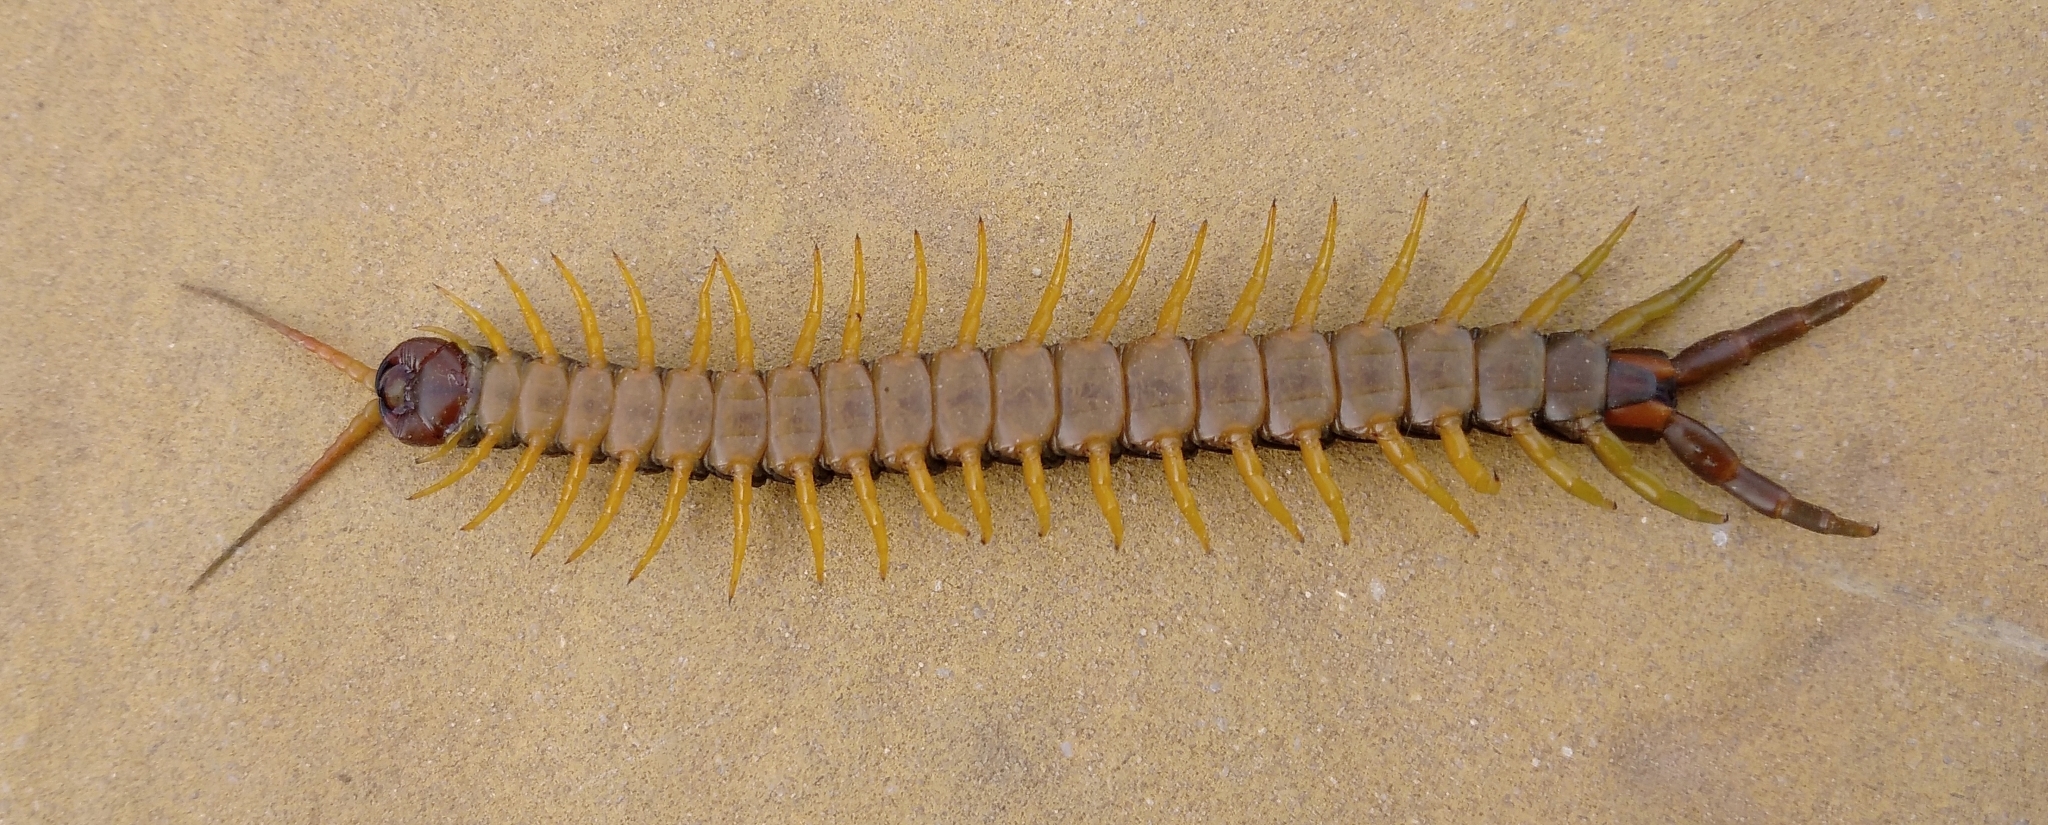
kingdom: Animalia
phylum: Arthropoda
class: Chilopoda
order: Scolopendromorpha
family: Scolopendridae
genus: Scolopendra
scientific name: Scolopendra cingulata
